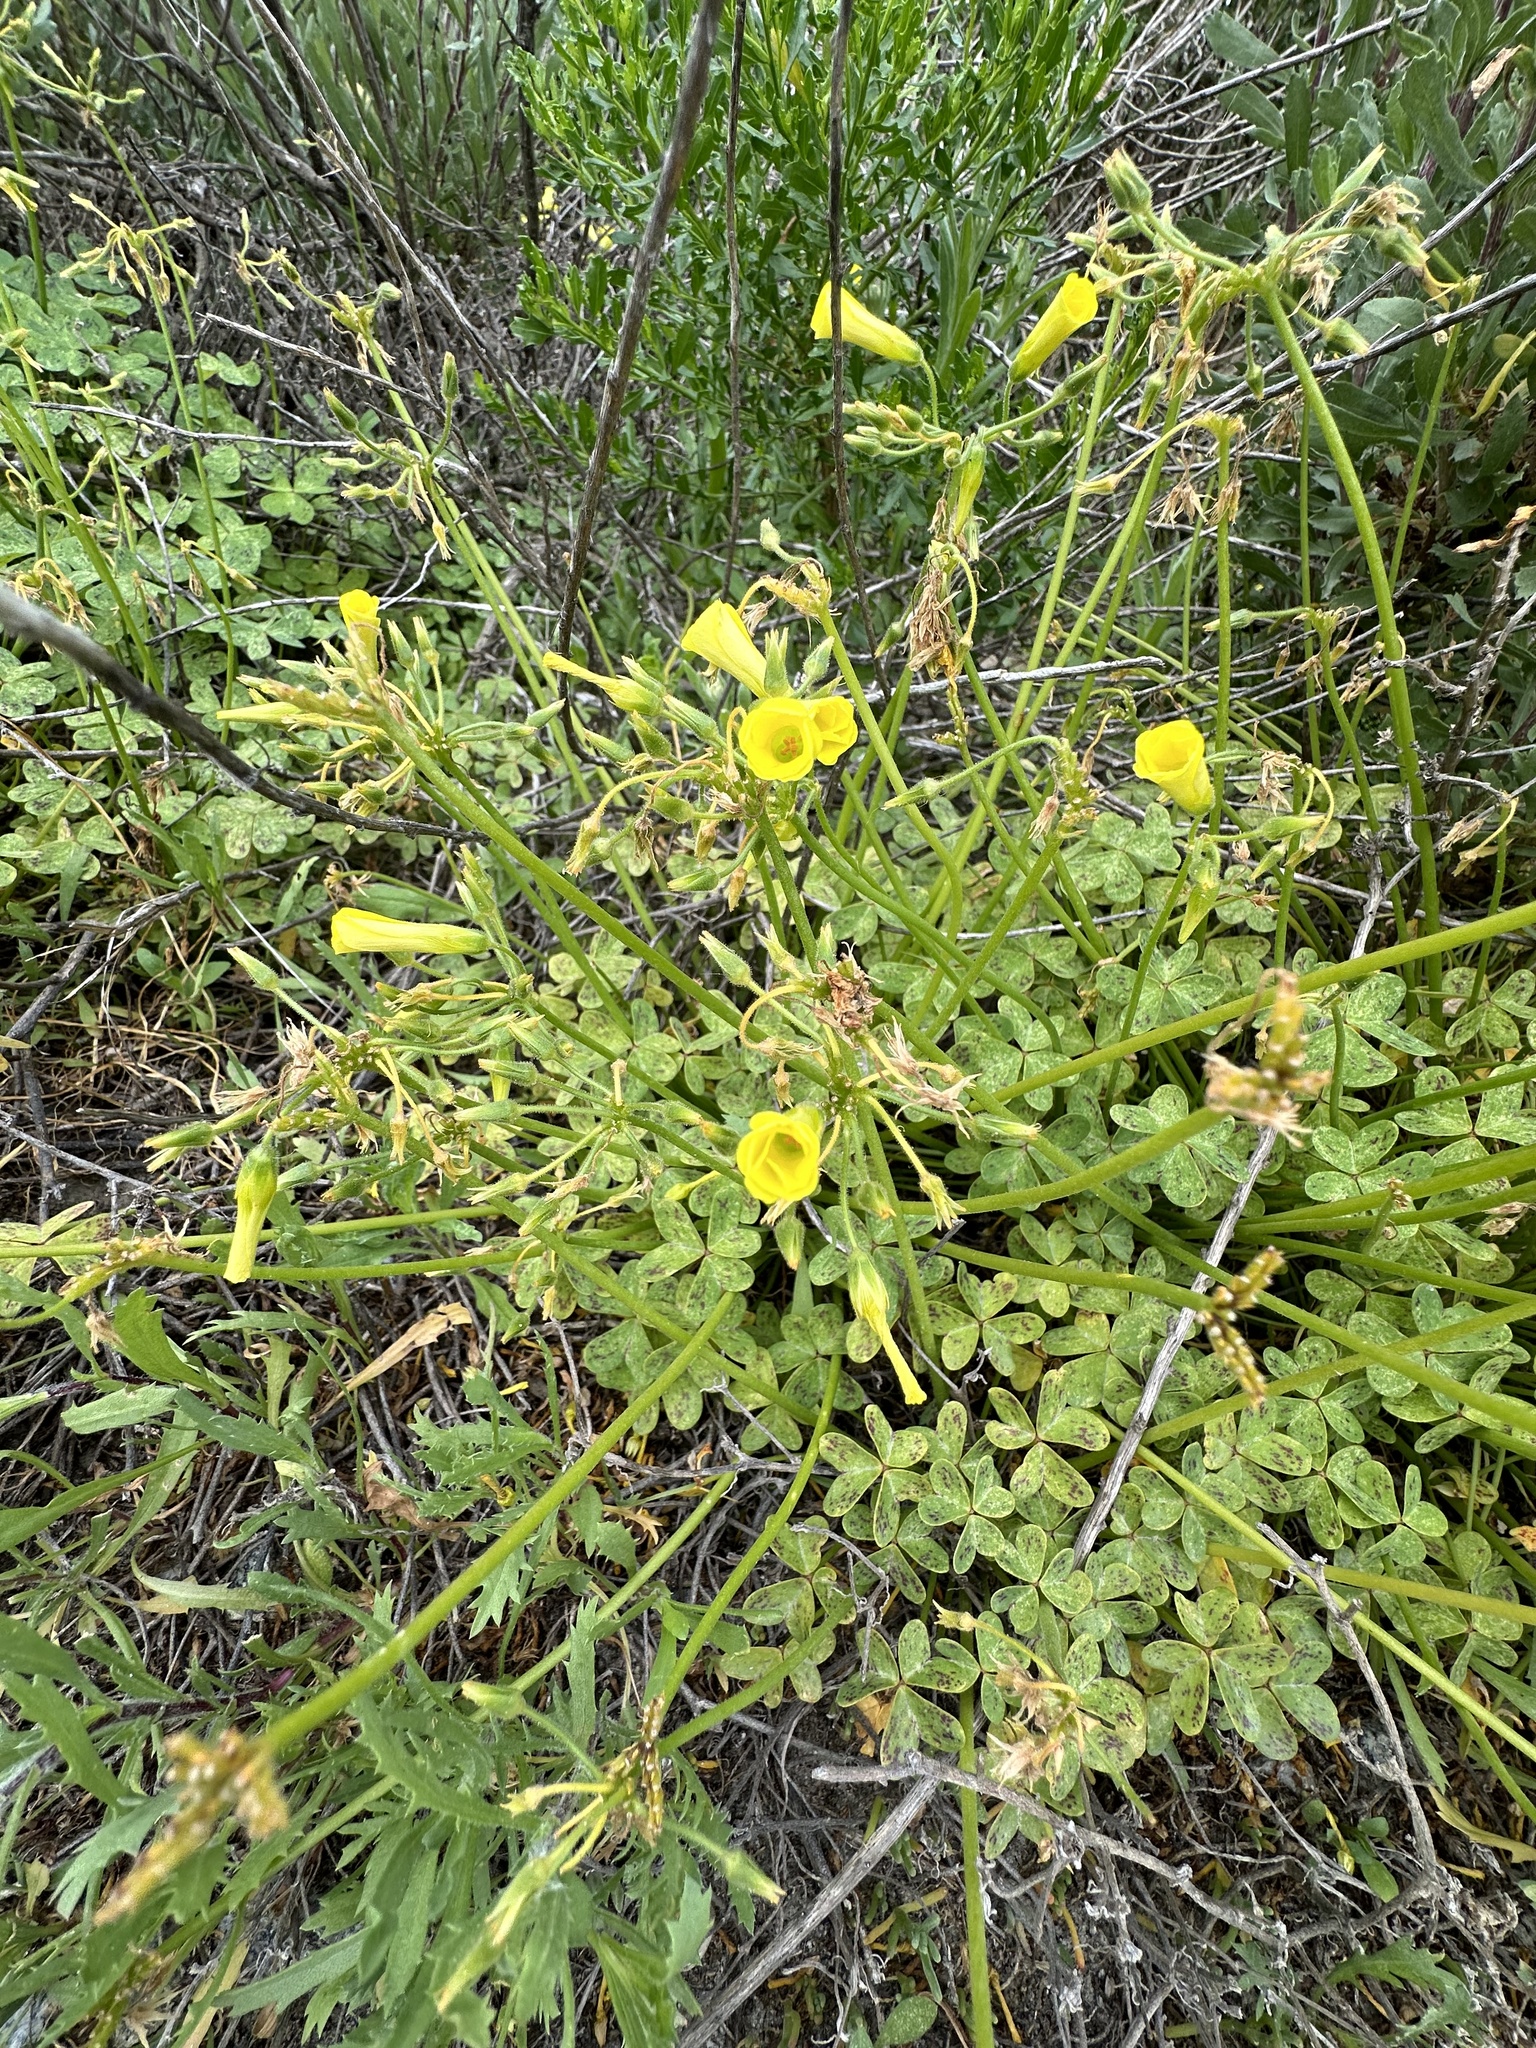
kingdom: Plantae
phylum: Tracheophyta
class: Magnoliopsida
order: Oxalidales
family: Oxalidaceae
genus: Oxalis
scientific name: Oxalis pes-caprae
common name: Bermuda-buttercup
